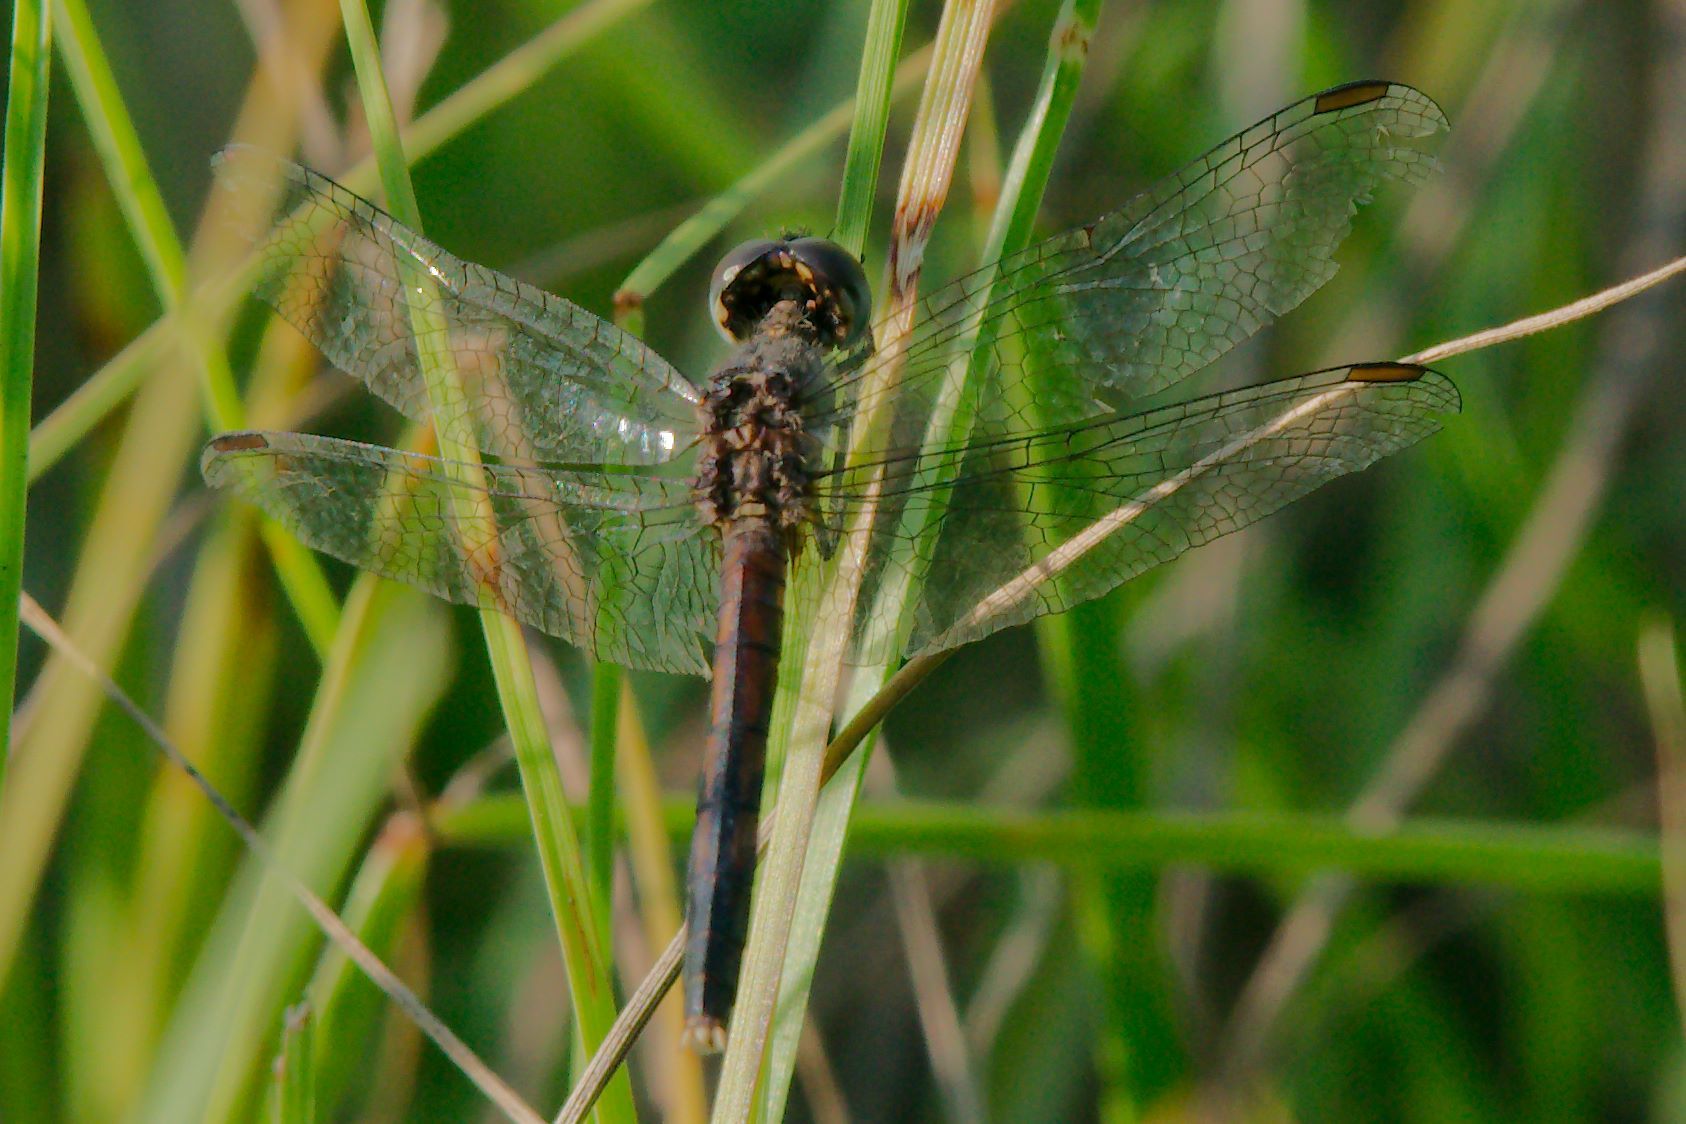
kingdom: Animalia
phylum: Arthropoda
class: Insecta
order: Odonata
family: Libellulidae
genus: Erythrodiplax
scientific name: Erythrodiplax minuscula
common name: Little blue dragonlet
